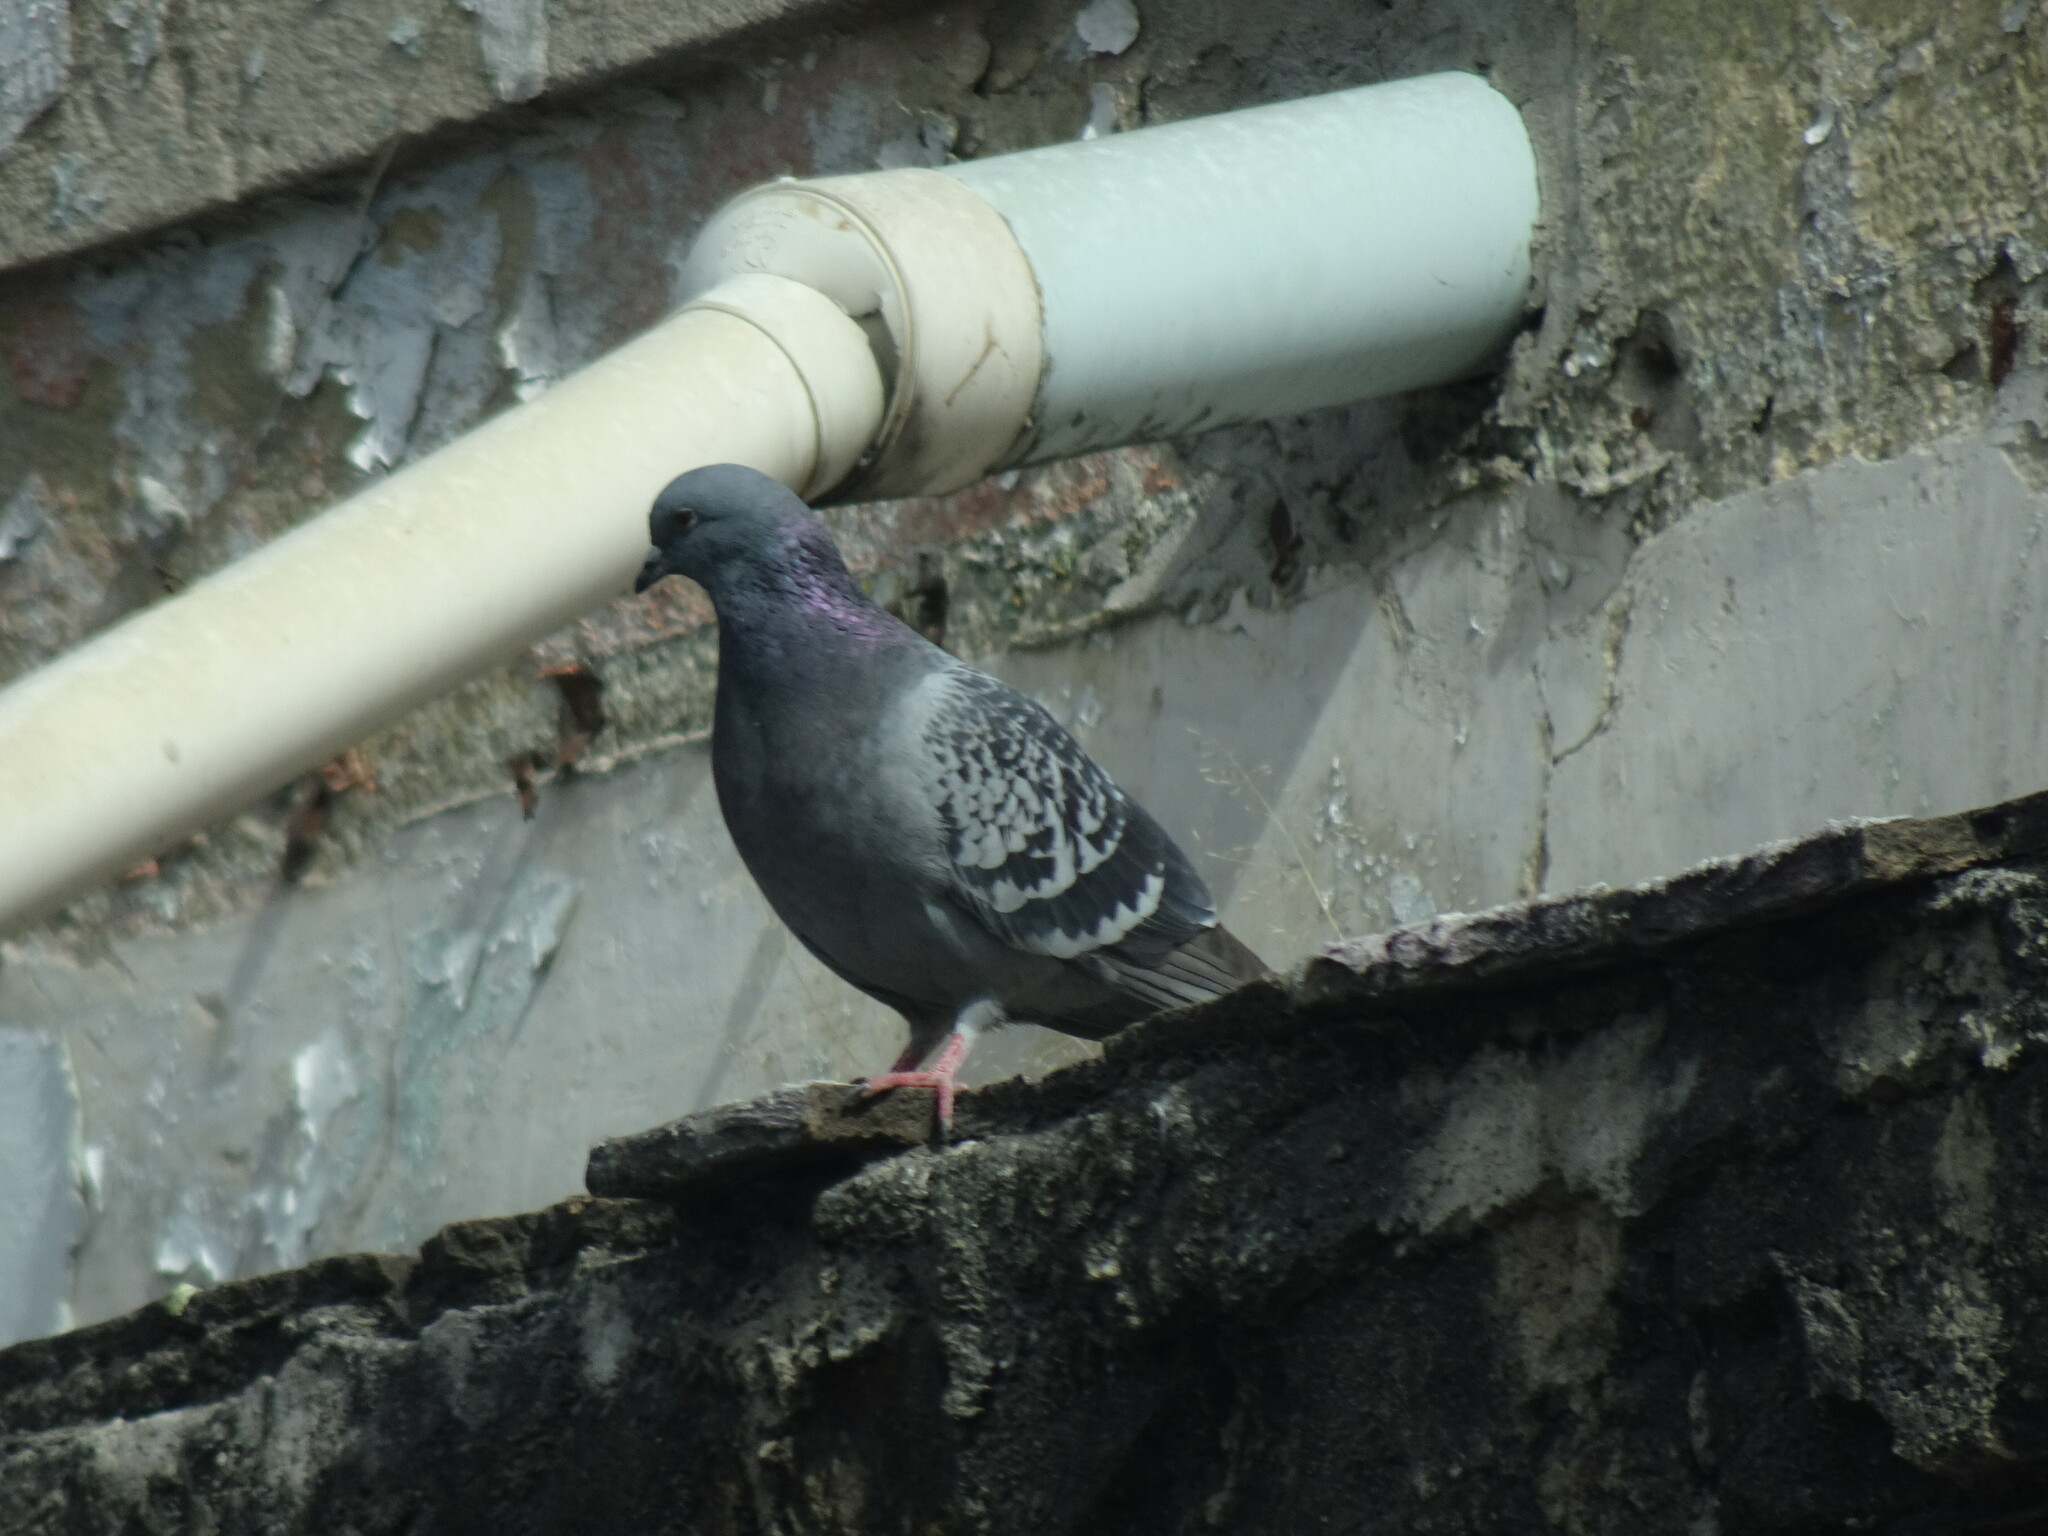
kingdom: Animalia
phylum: Chordata
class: Aves
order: Columbiformes
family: Columbidae
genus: Columba
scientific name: Columba livia
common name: Rock pigeon
